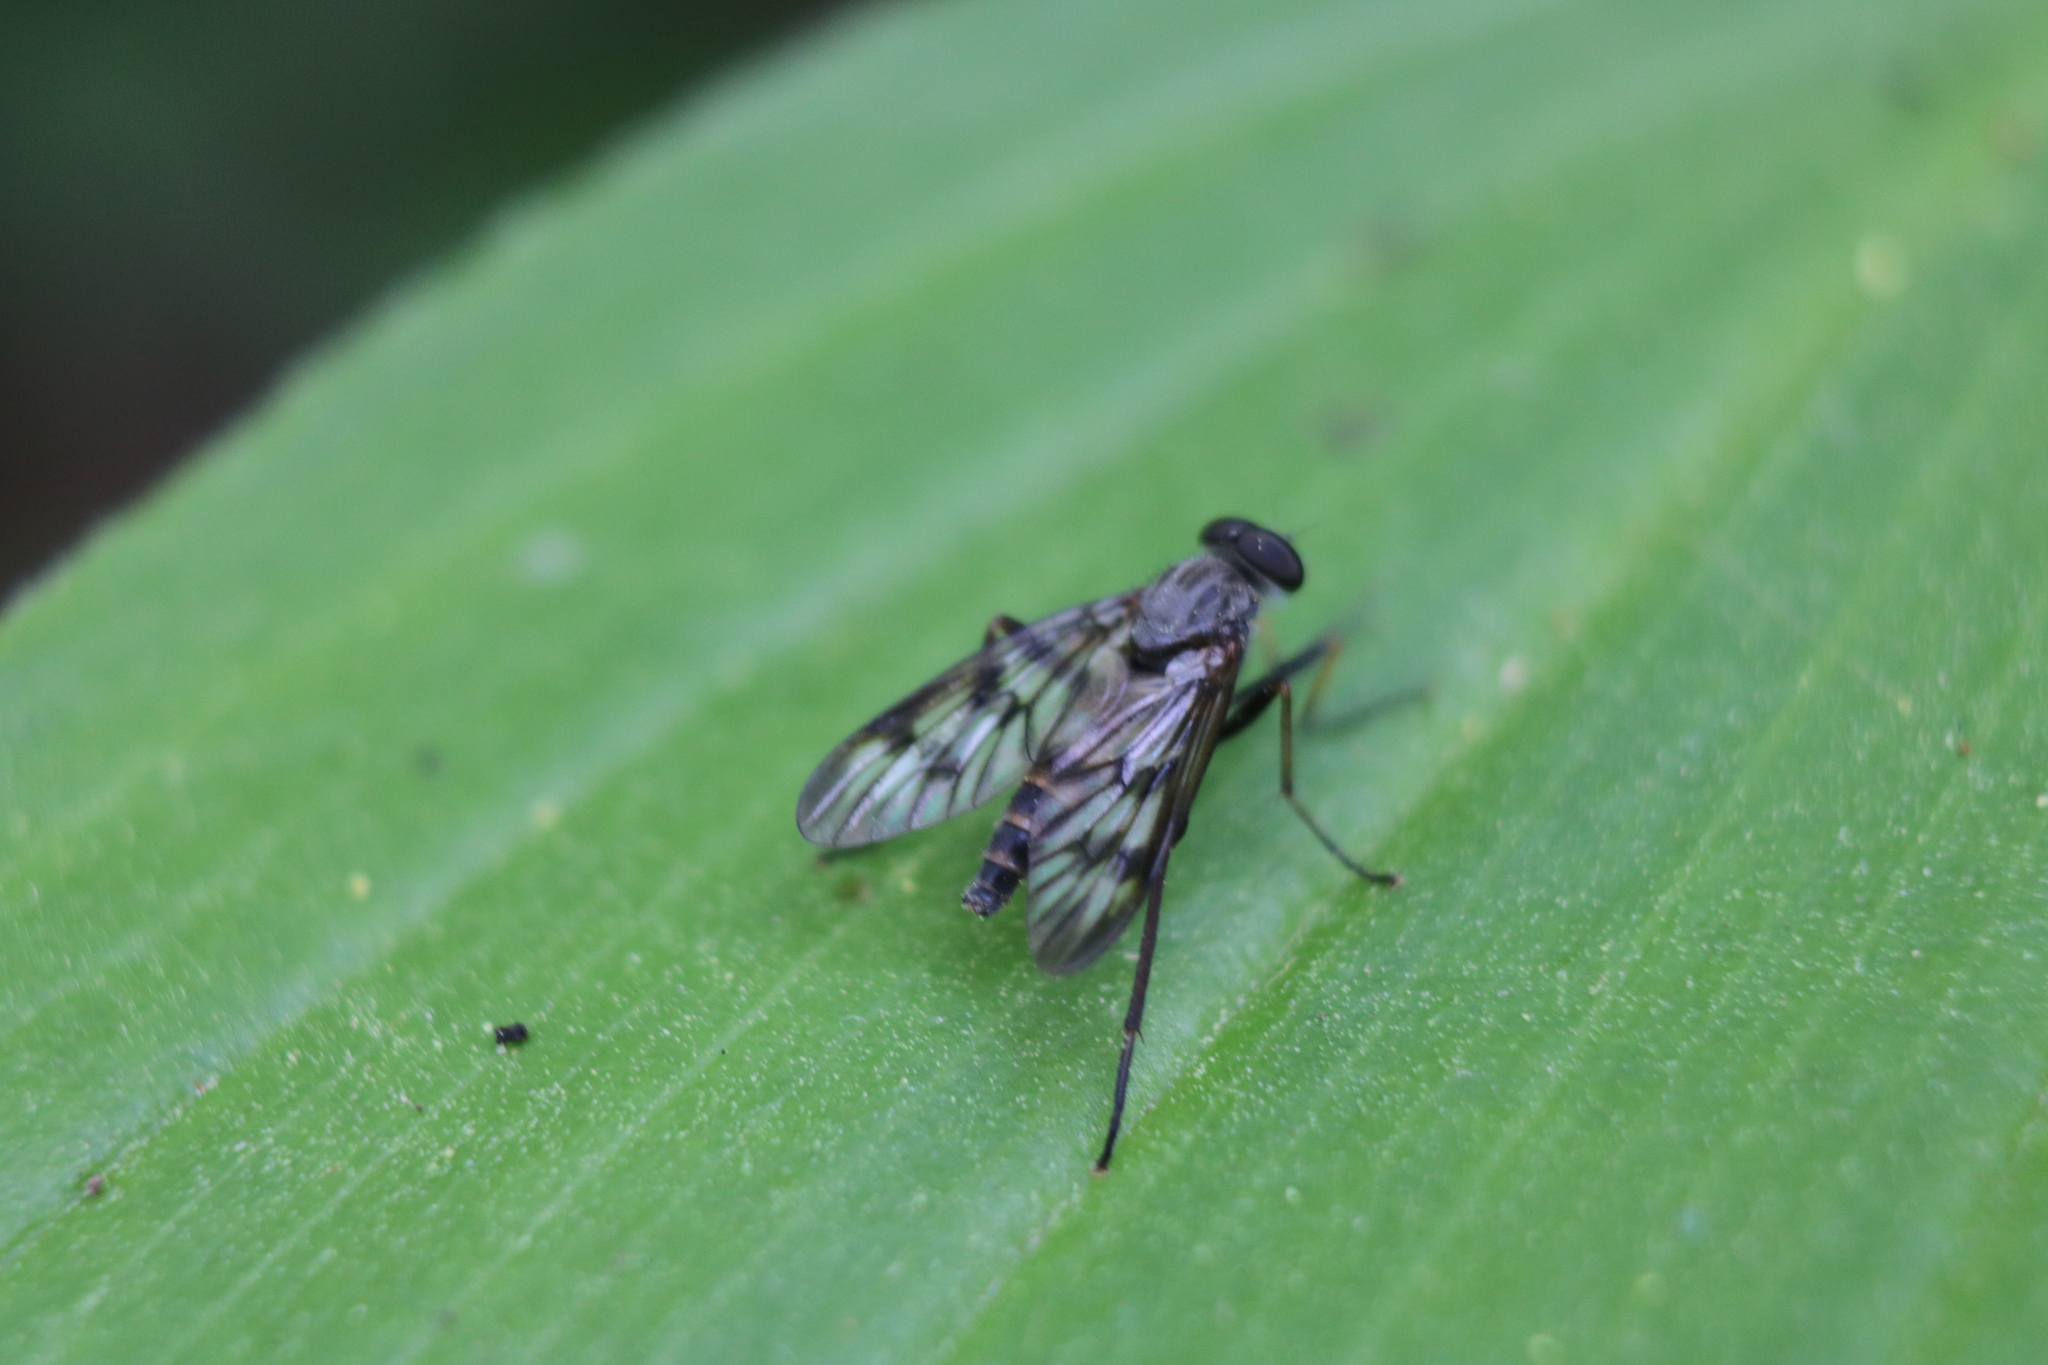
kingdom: Animalia
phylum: Arthropoda
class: Insecta
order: Diptera
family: Rhagionidae
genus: Rhagio
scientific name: Rhagio mystaceus
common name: Common snipe fly
